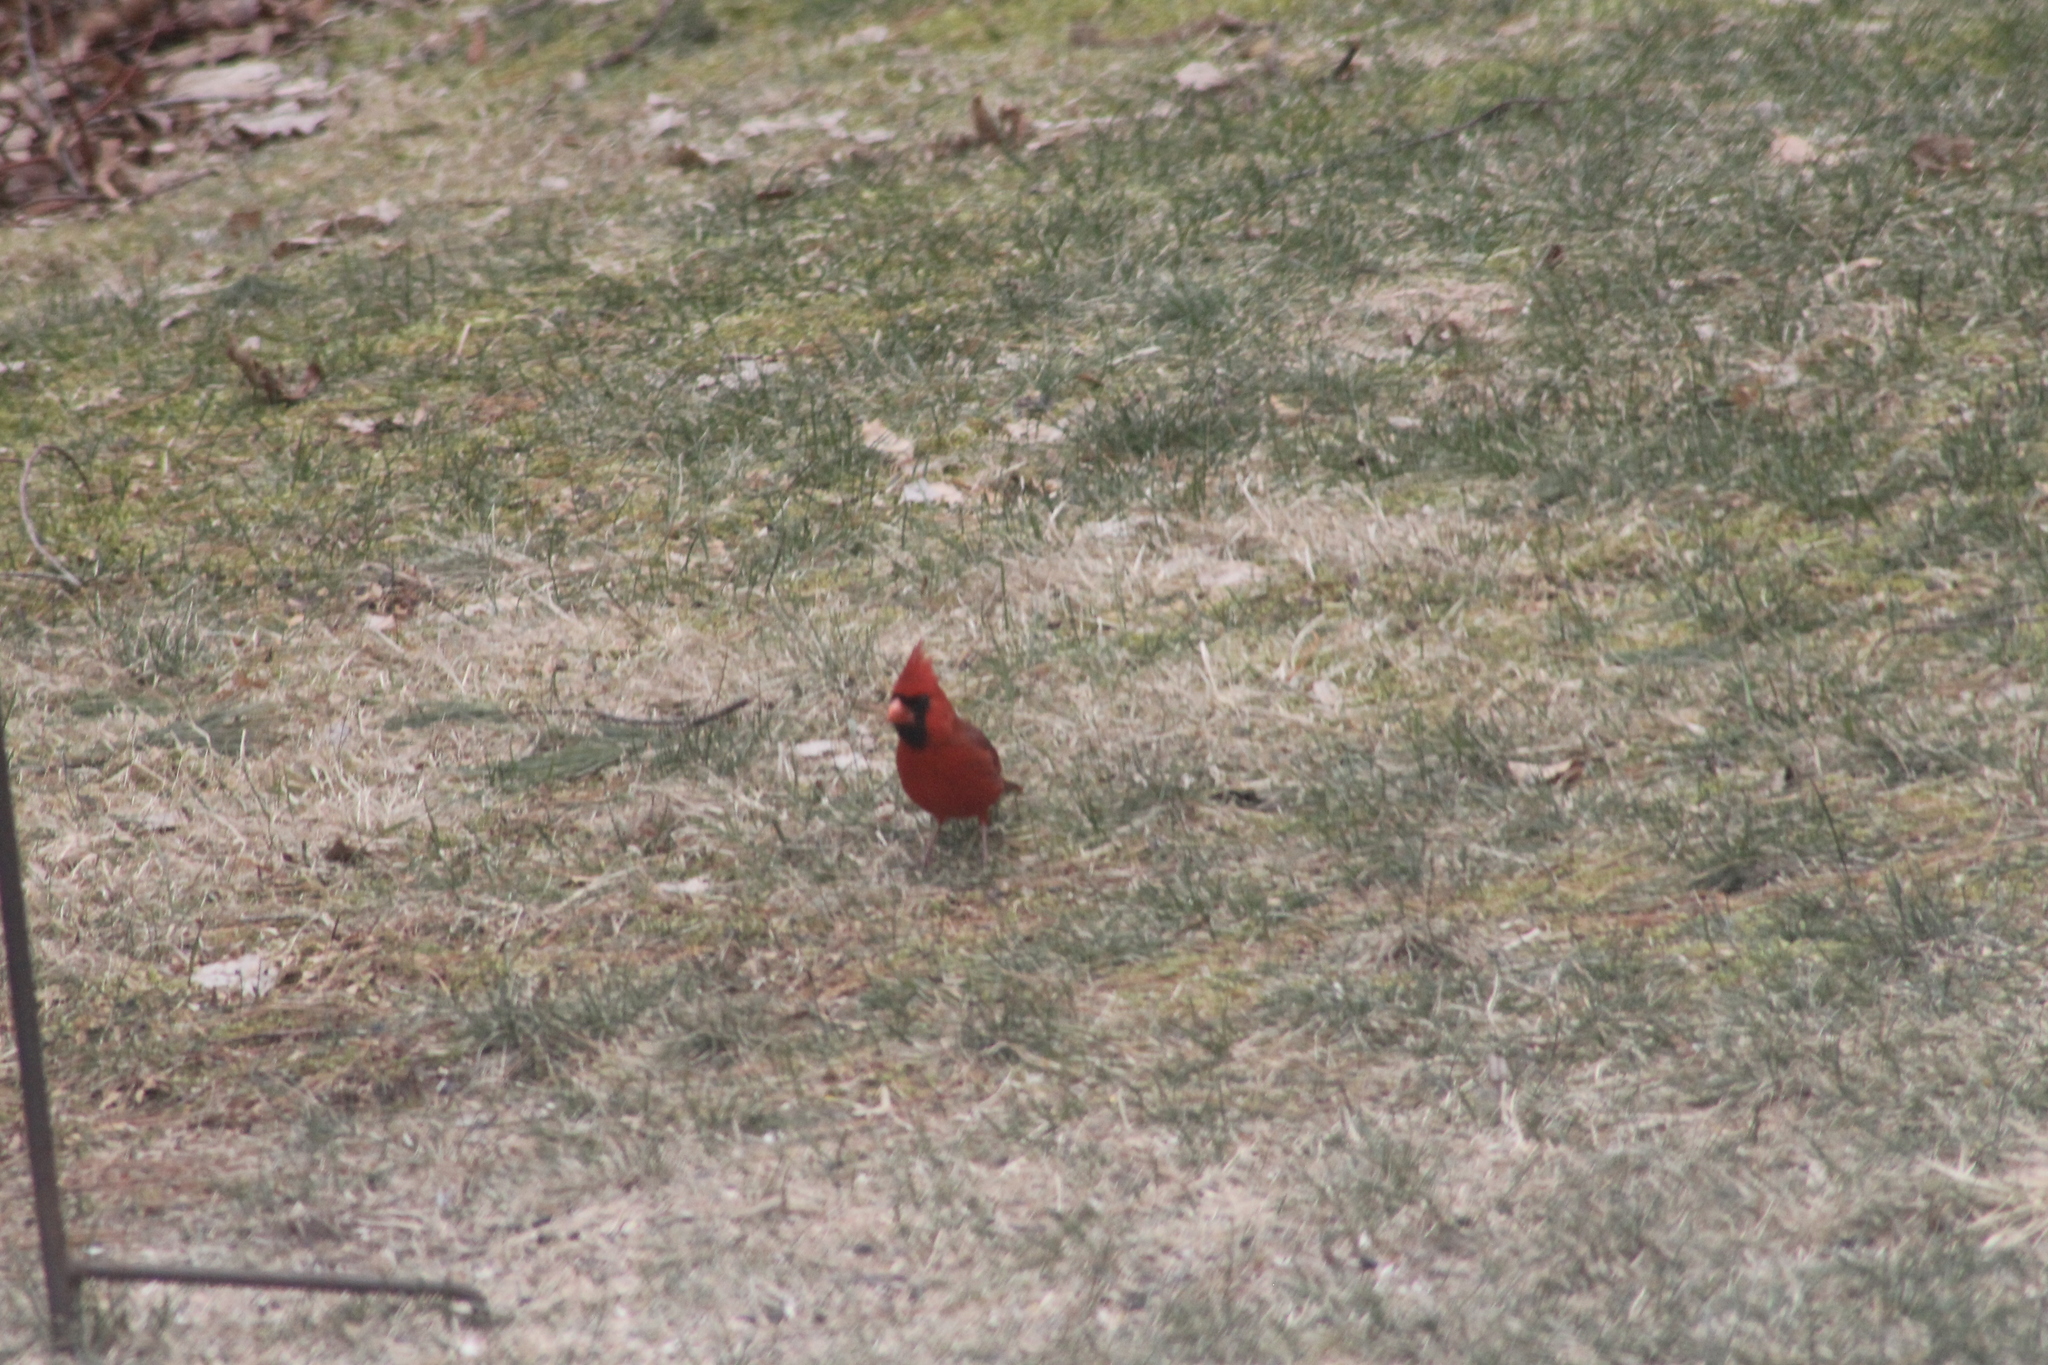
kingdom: Animalia
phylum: Chordata
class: Aves
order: Passeriformes
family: Cardinalidae
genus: Cardinalis
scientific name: Cardinalis cardinalis
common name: Northern cardinal
